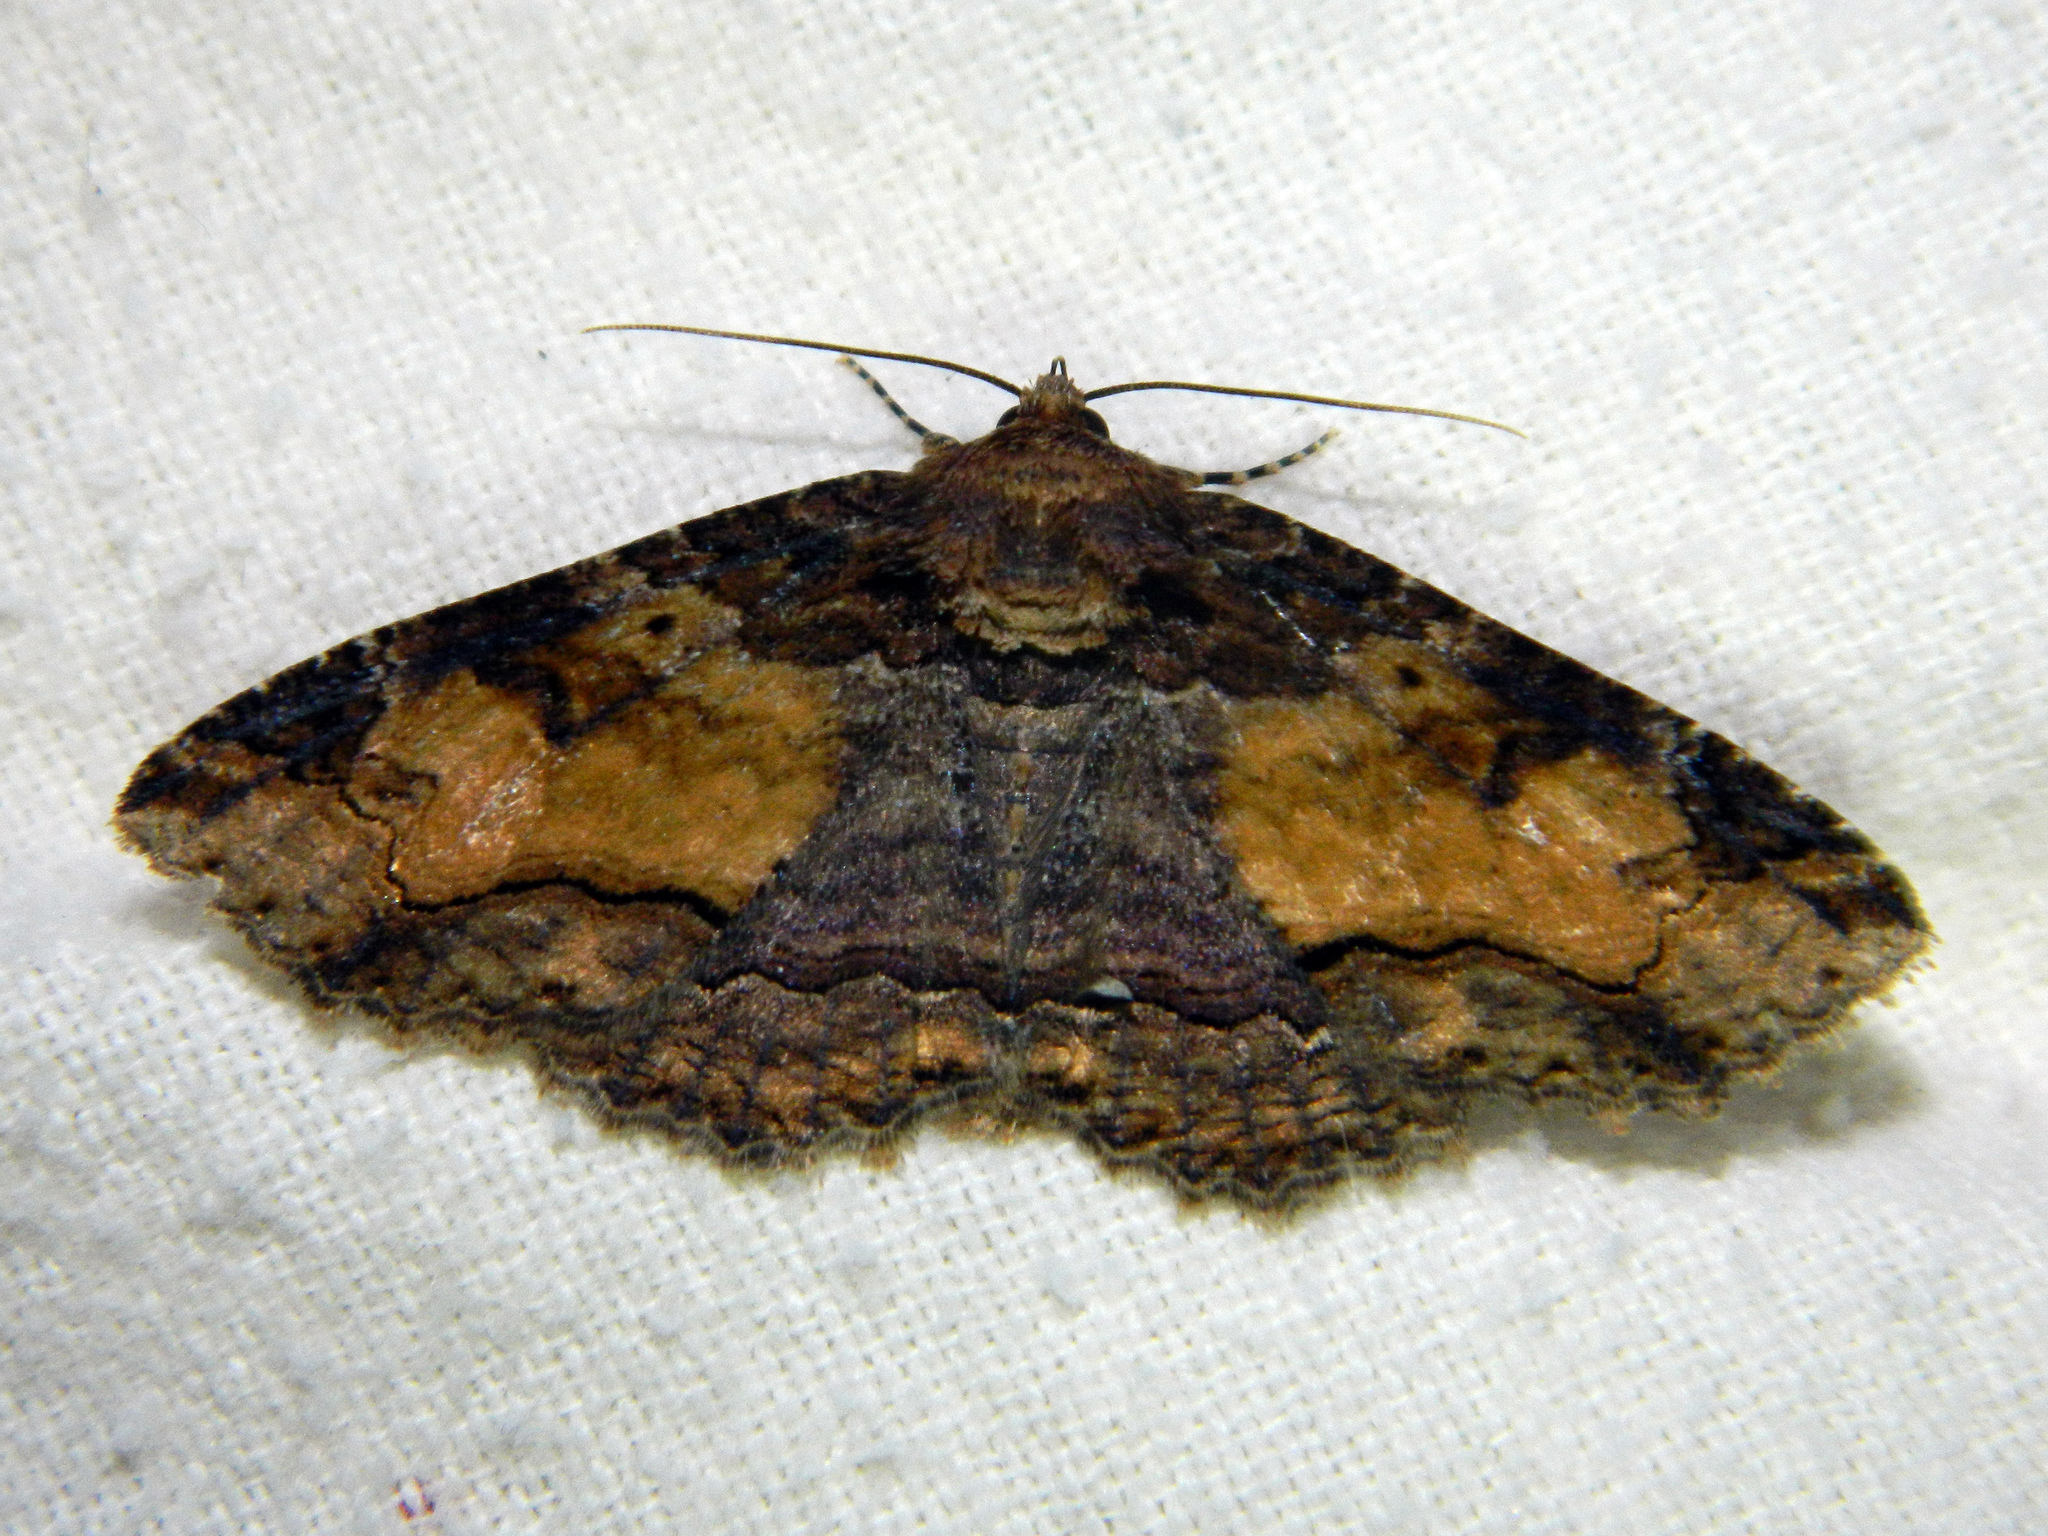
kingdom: Animalia
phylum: Arthropoda
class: Insecta
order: Lepidoptera
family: Erebidae
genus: Zale
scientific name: Zale minerea
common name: Colorful zale moth
